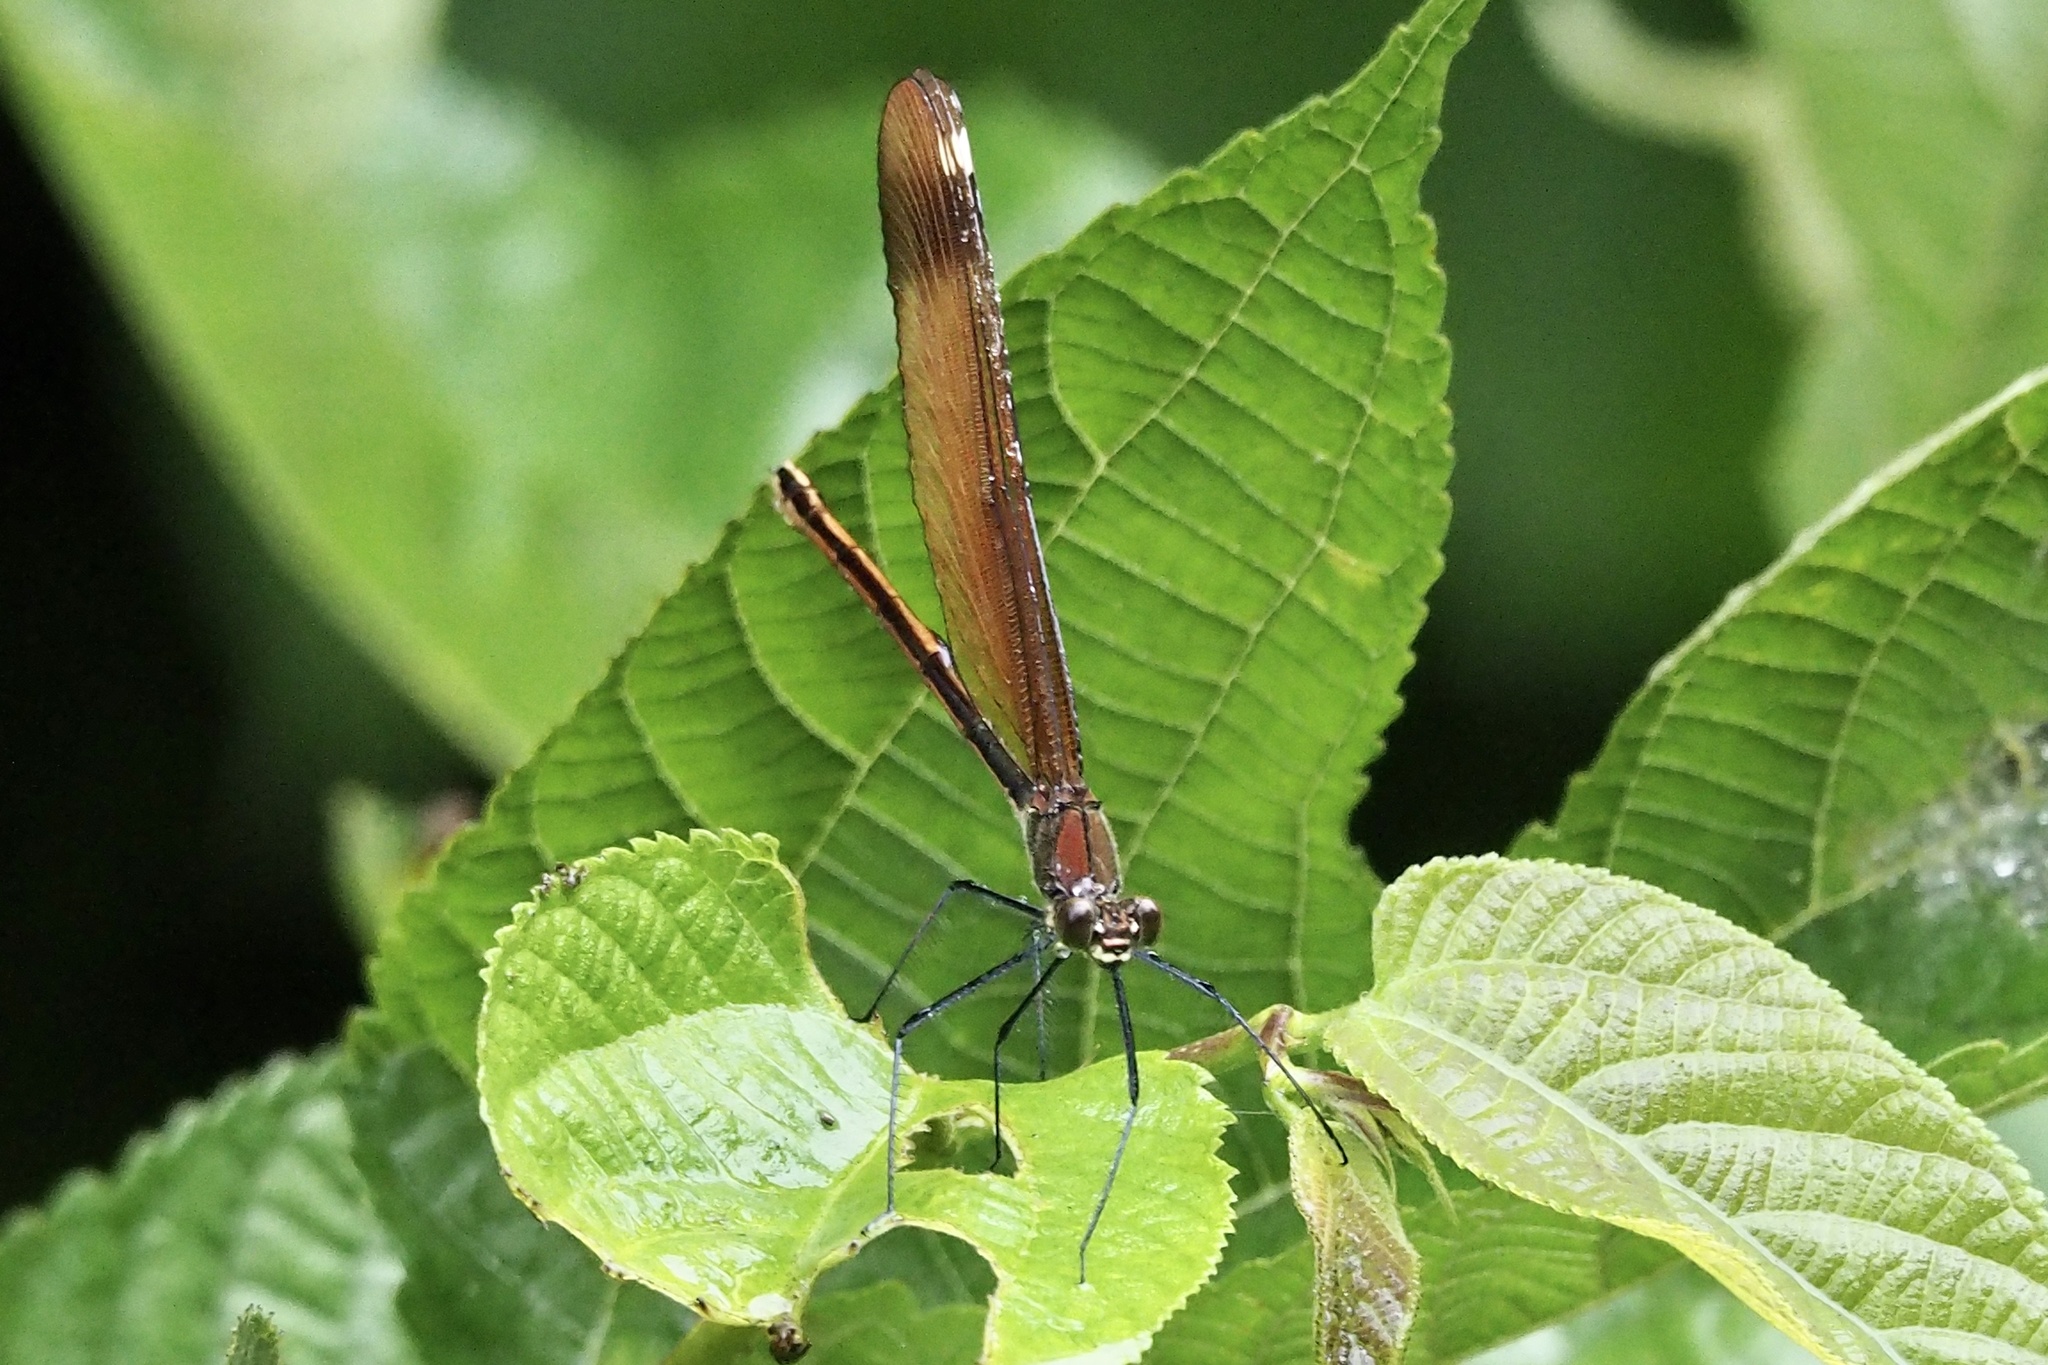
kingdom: Animalia
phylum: Arthropoda
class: Insecta
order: Odonata
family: Calopterygidae
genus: Calopteryx
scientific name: Calopteryx cornelia
